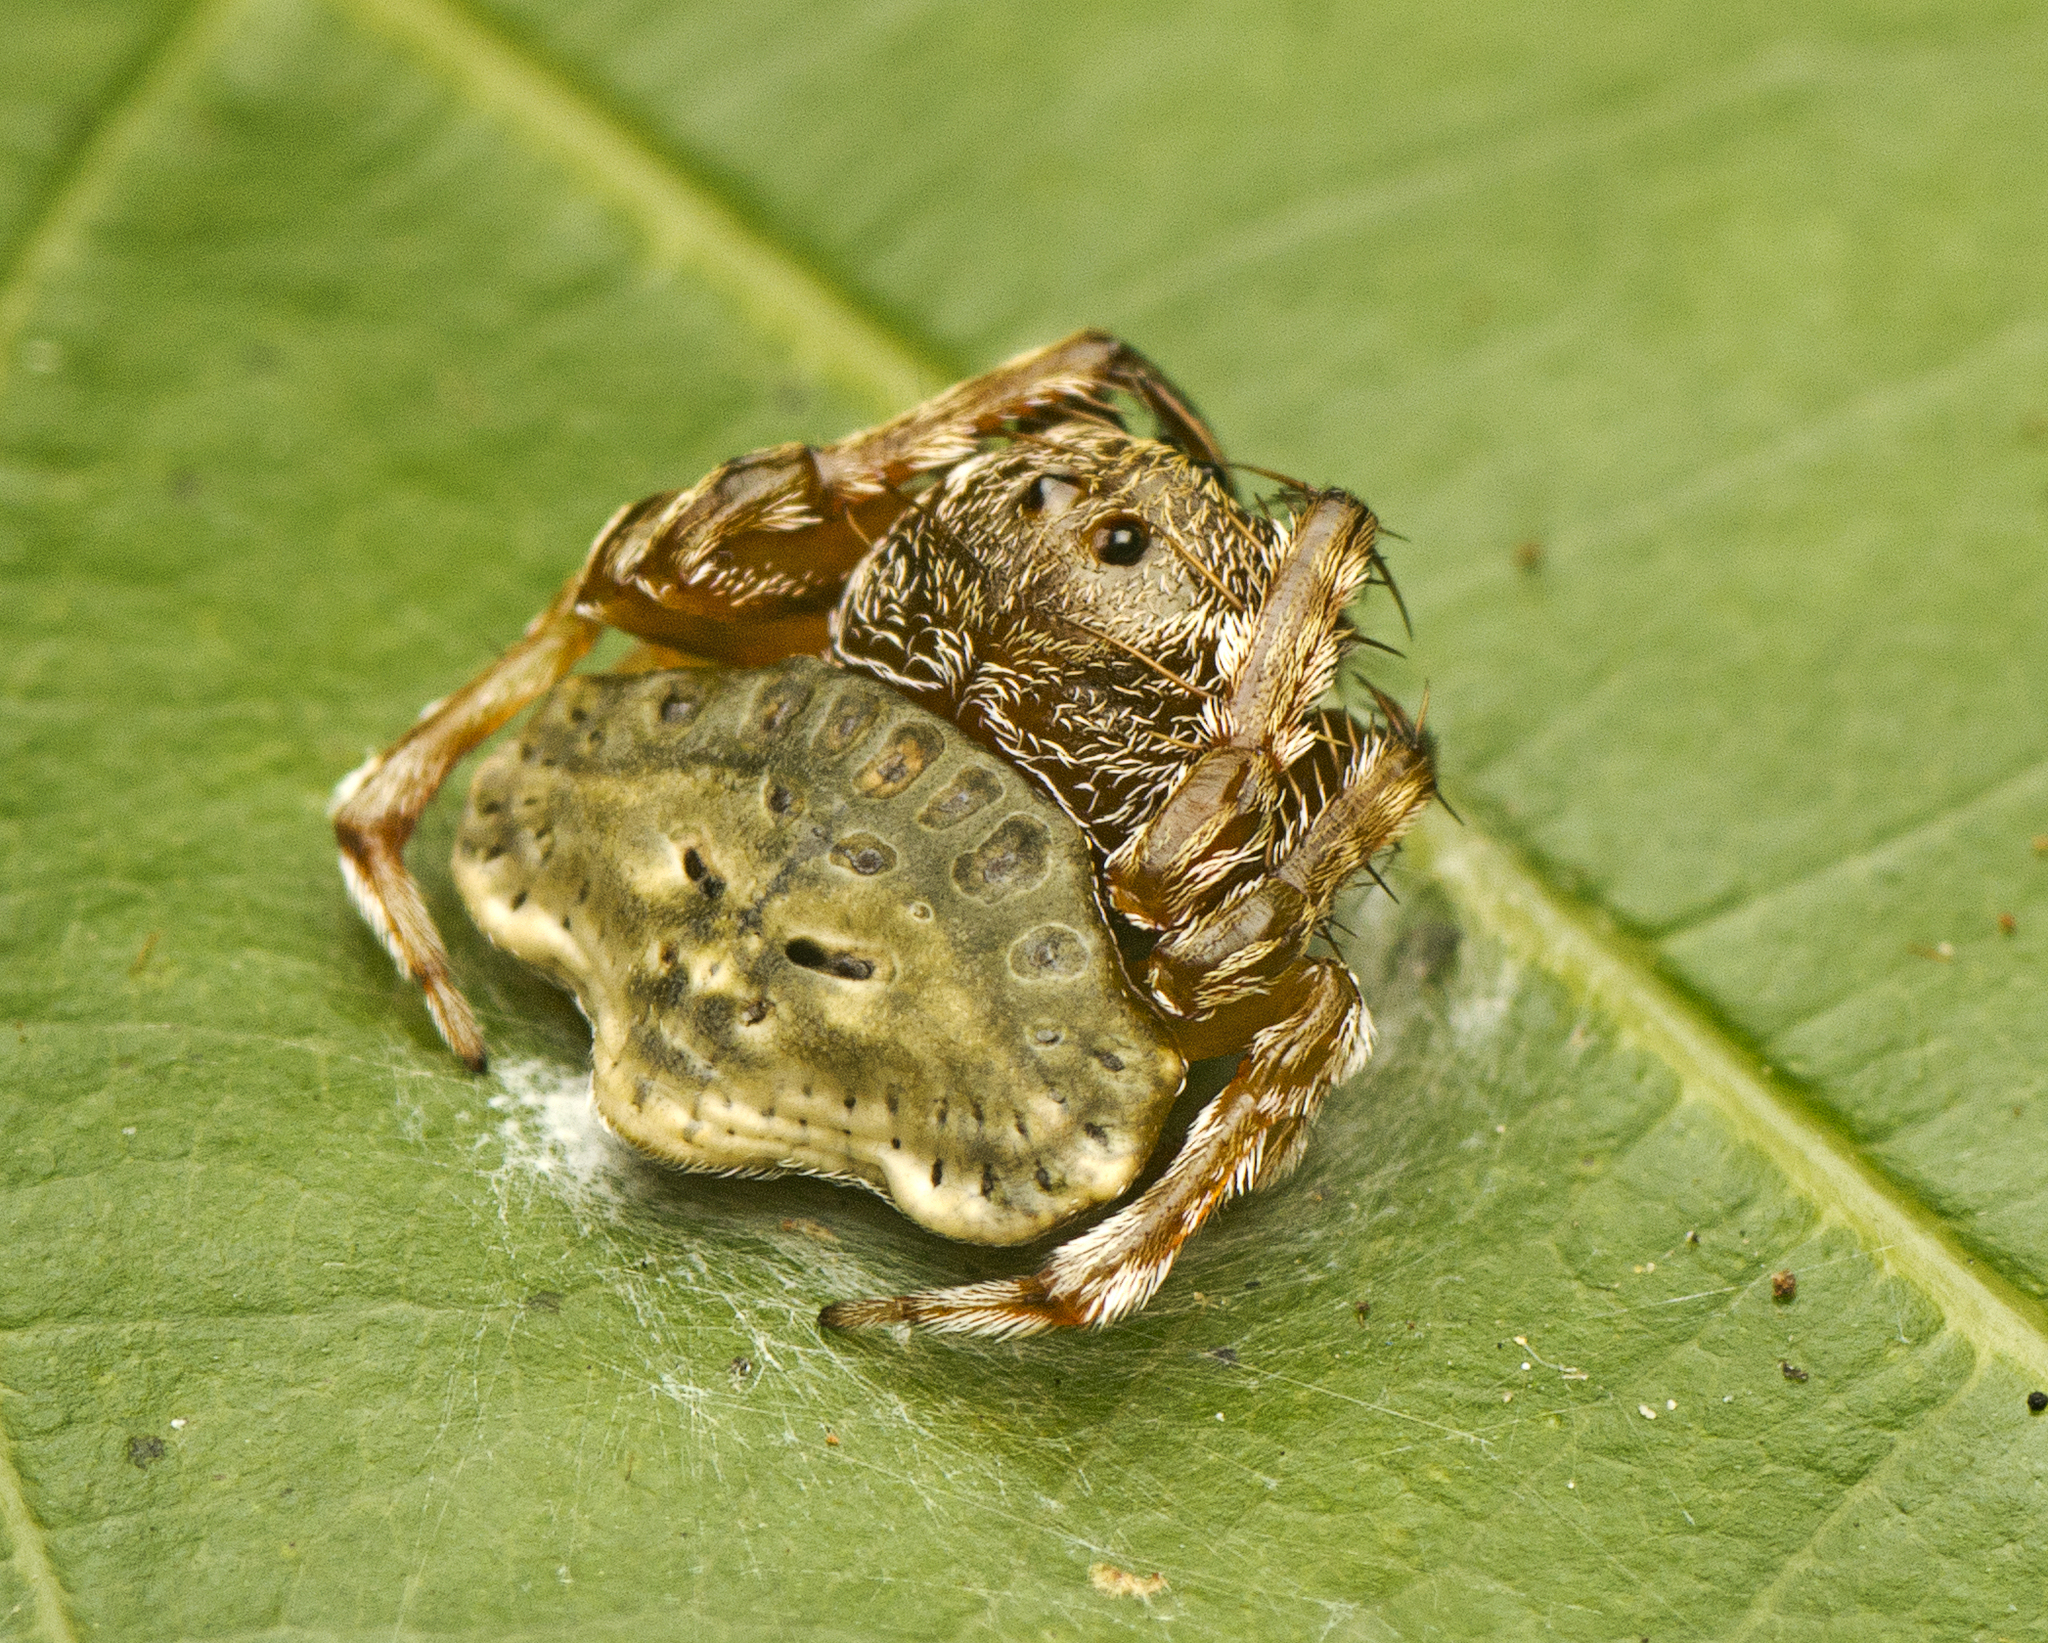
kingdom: Animalia
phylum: Arthropoda
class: Arachnida
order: Araneae
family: Arkyidae
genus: Arkys
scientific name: Arkys speechleyi
